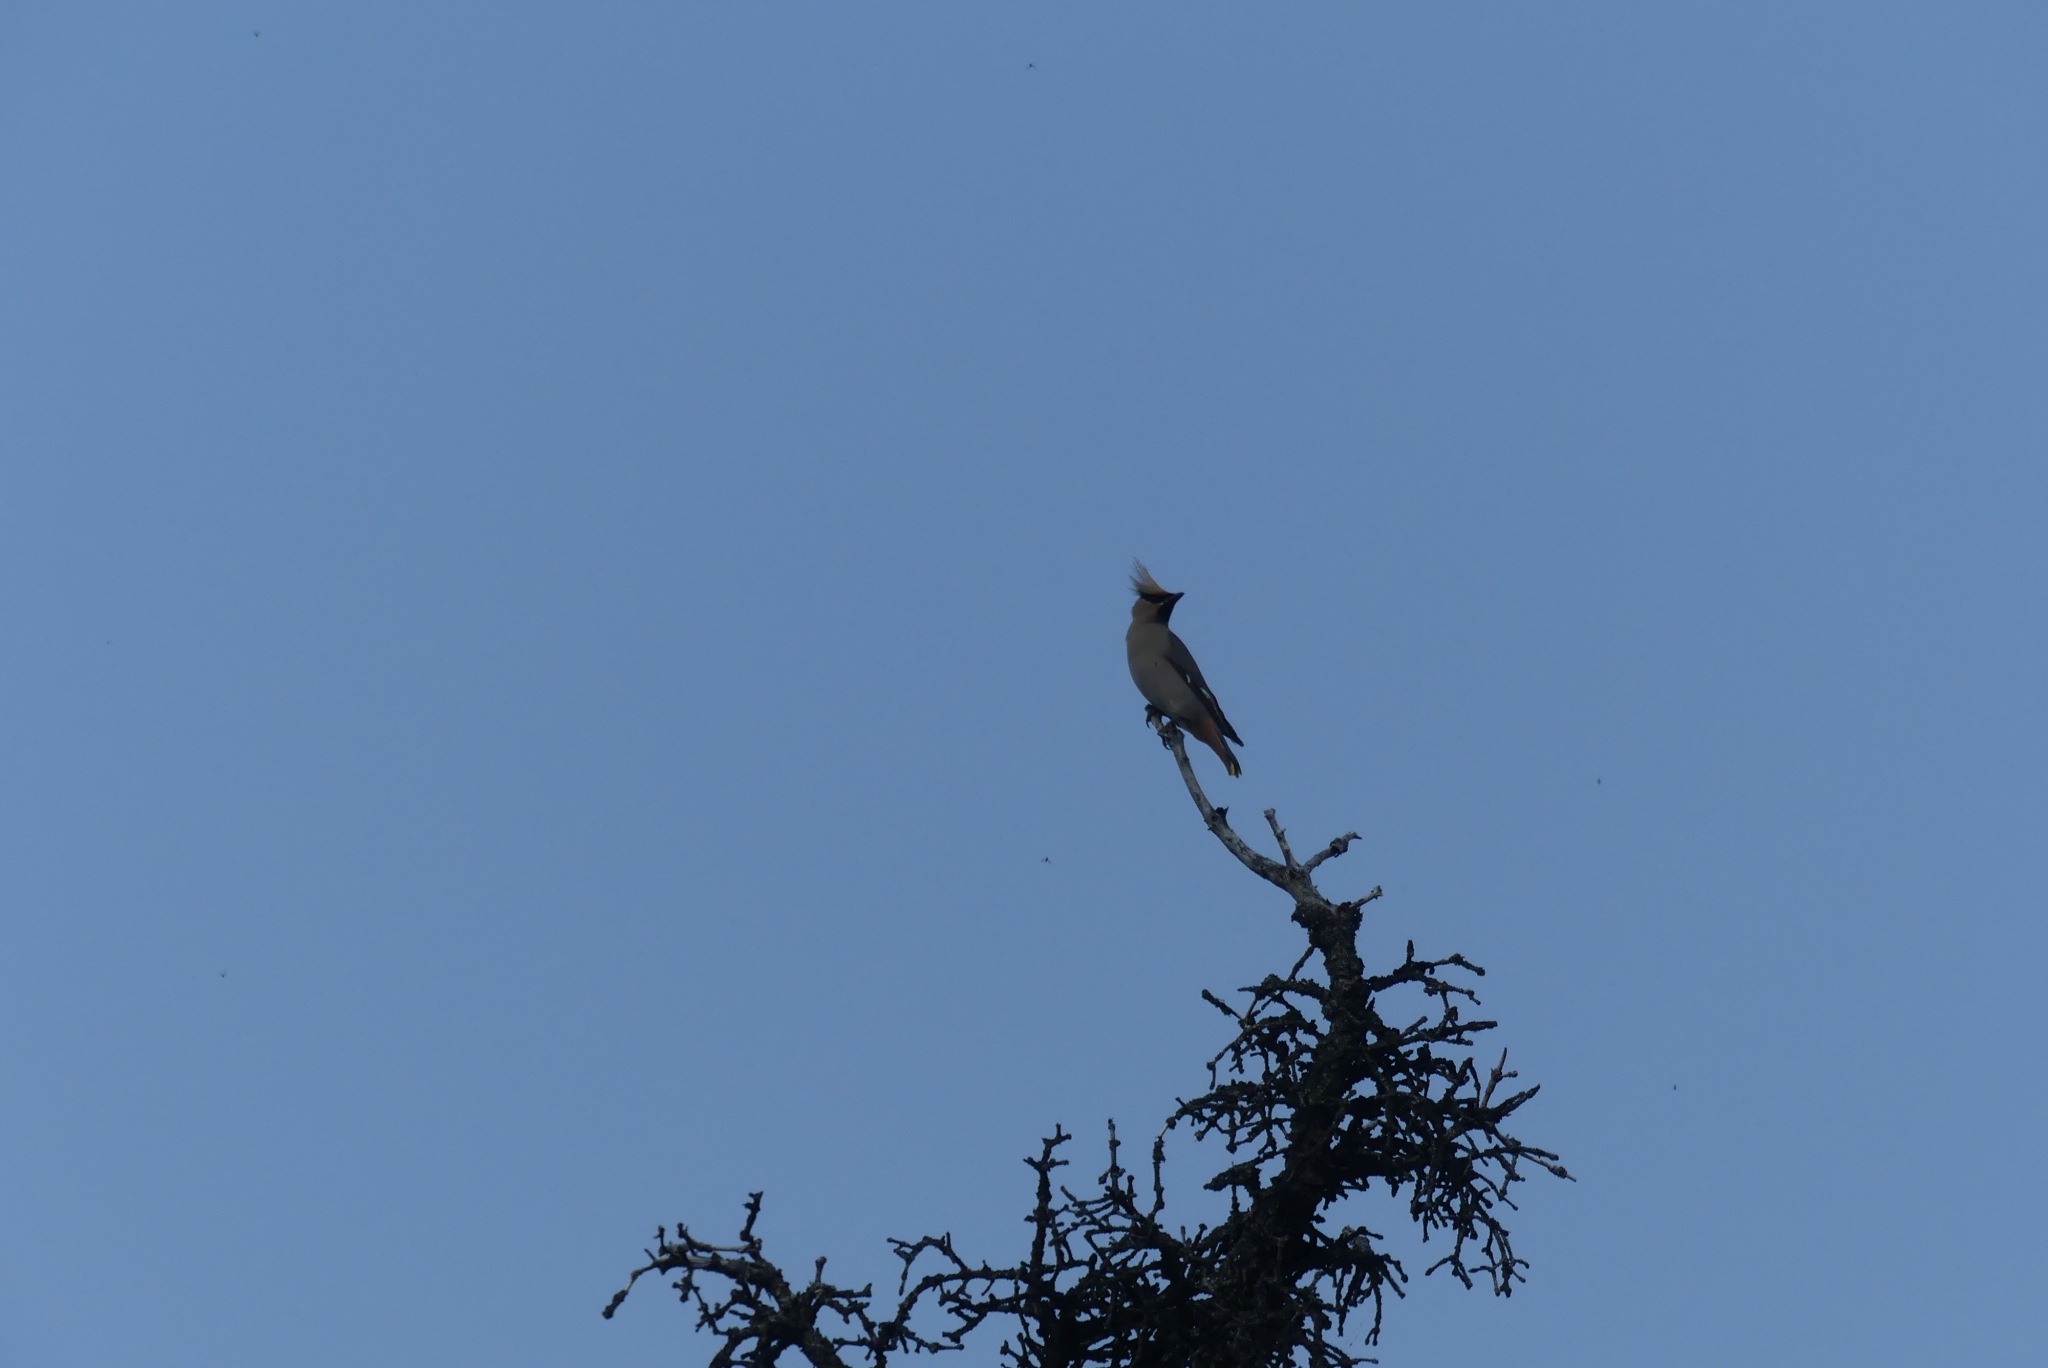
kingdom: Animalia
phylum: Chordata
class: Aves
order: Passeriformes
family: Bombycillidae
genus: Bombycilla
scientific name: Bombycilla garrulus
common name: Bohemian waxwing
